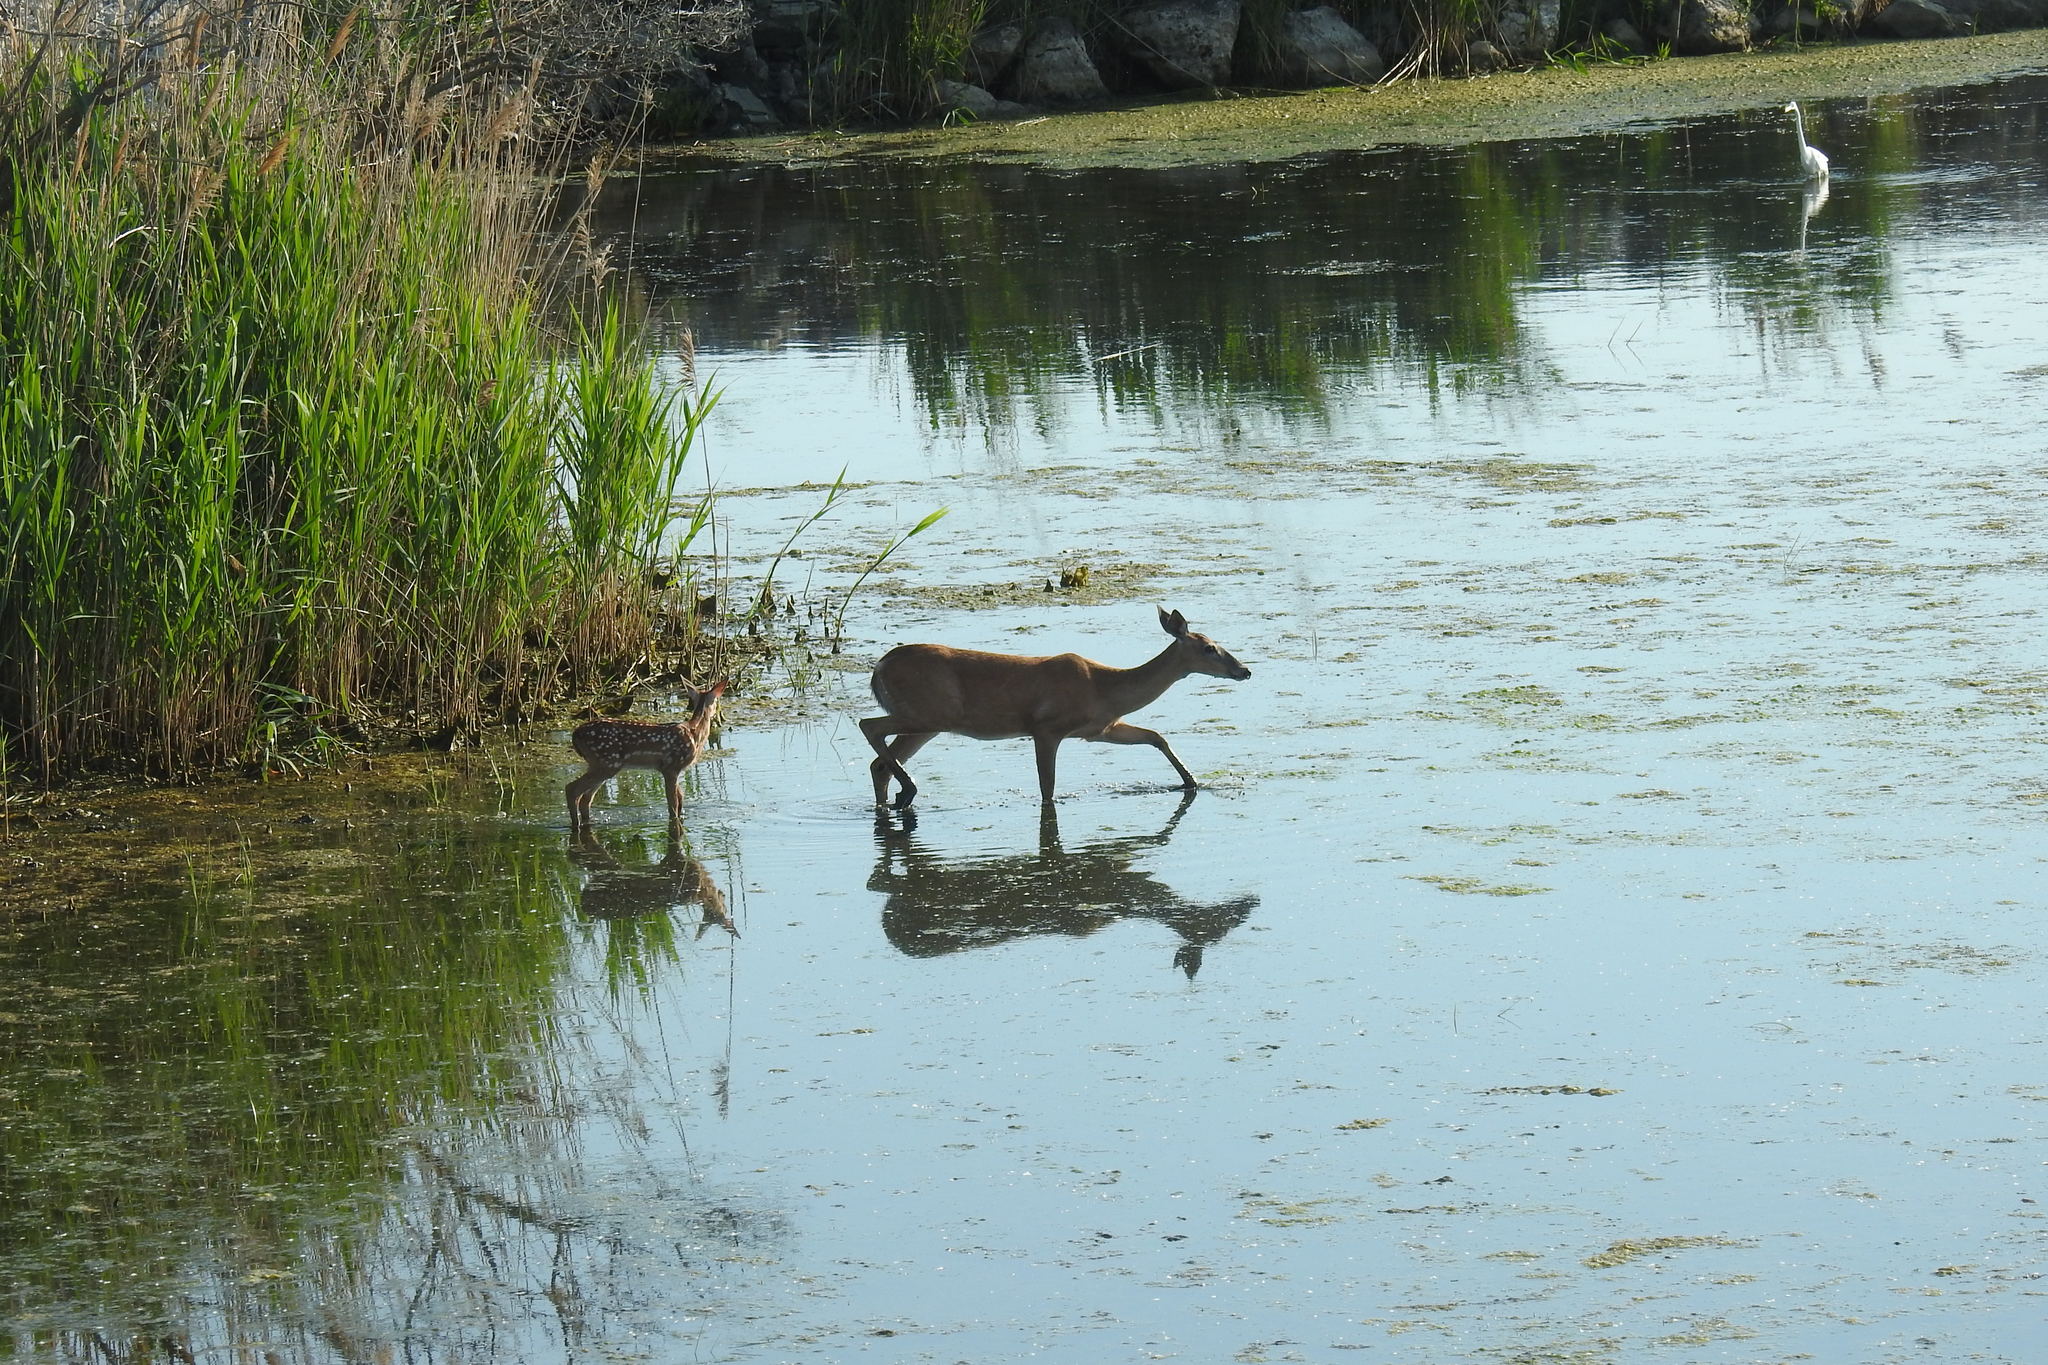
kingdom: Animalia
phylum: Chordata
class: Mammalia
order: Artiodactyla
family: Cervidae
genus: Odocoileus
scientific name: Odocoileus virginianus
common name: White-tailed deer
